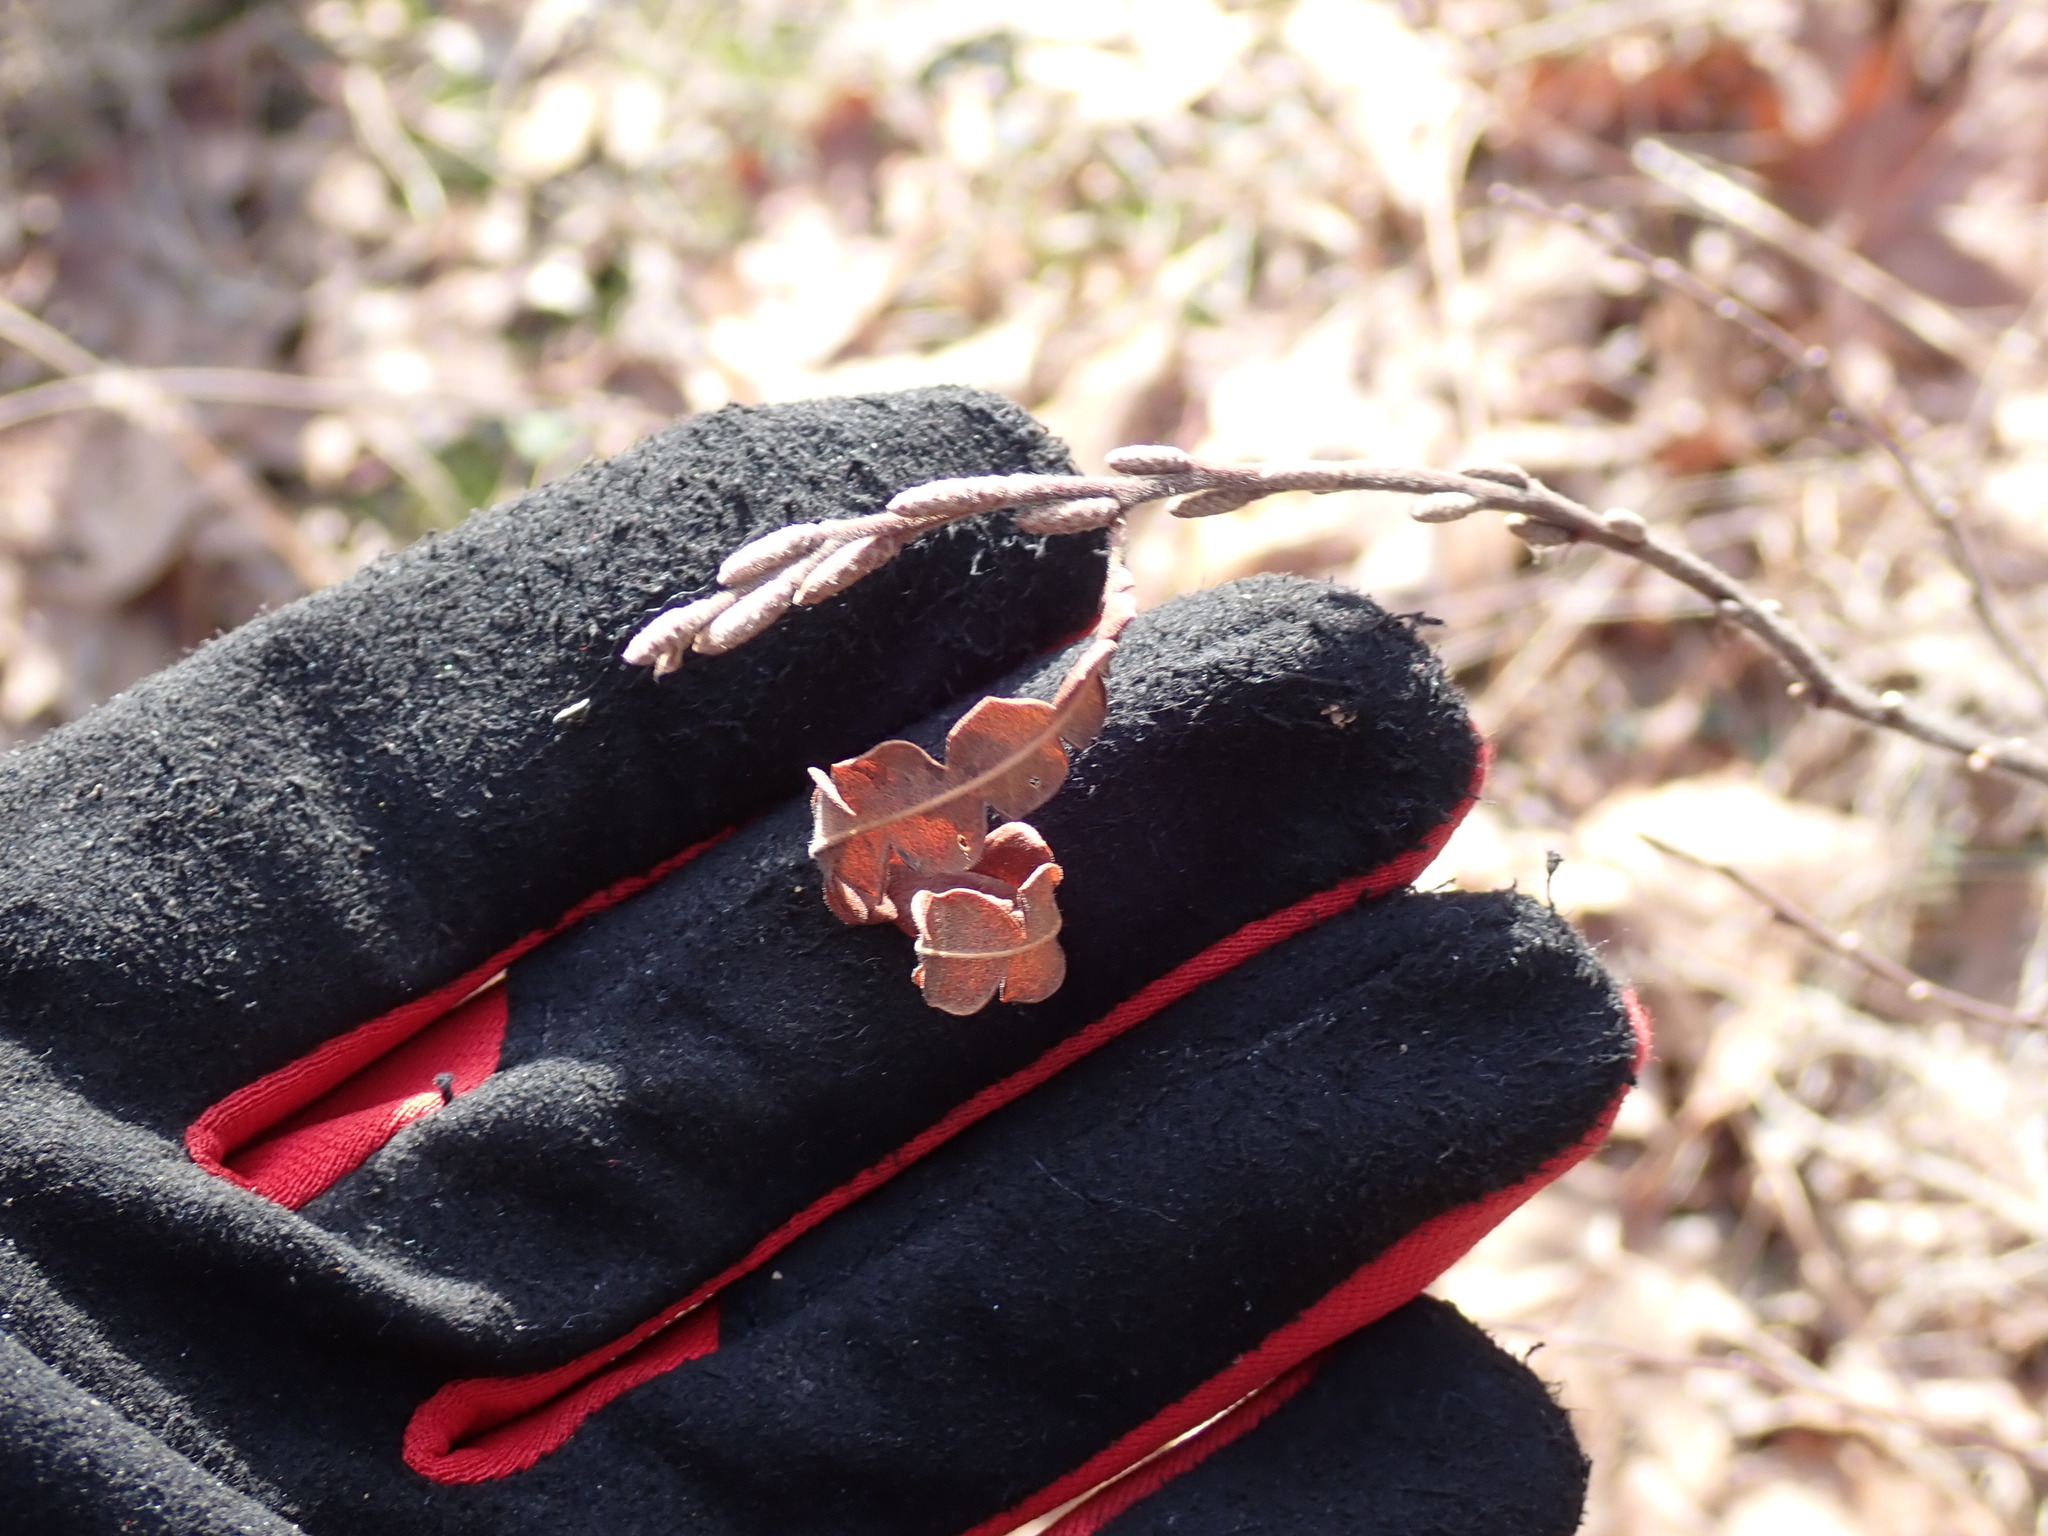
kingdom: Plantae
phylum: Tracheophyta
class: Magnoliopsida
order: Fagales
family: Myricaceae
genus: Comptonia
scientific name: Comptonia peregrina
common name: Sweet-fern
